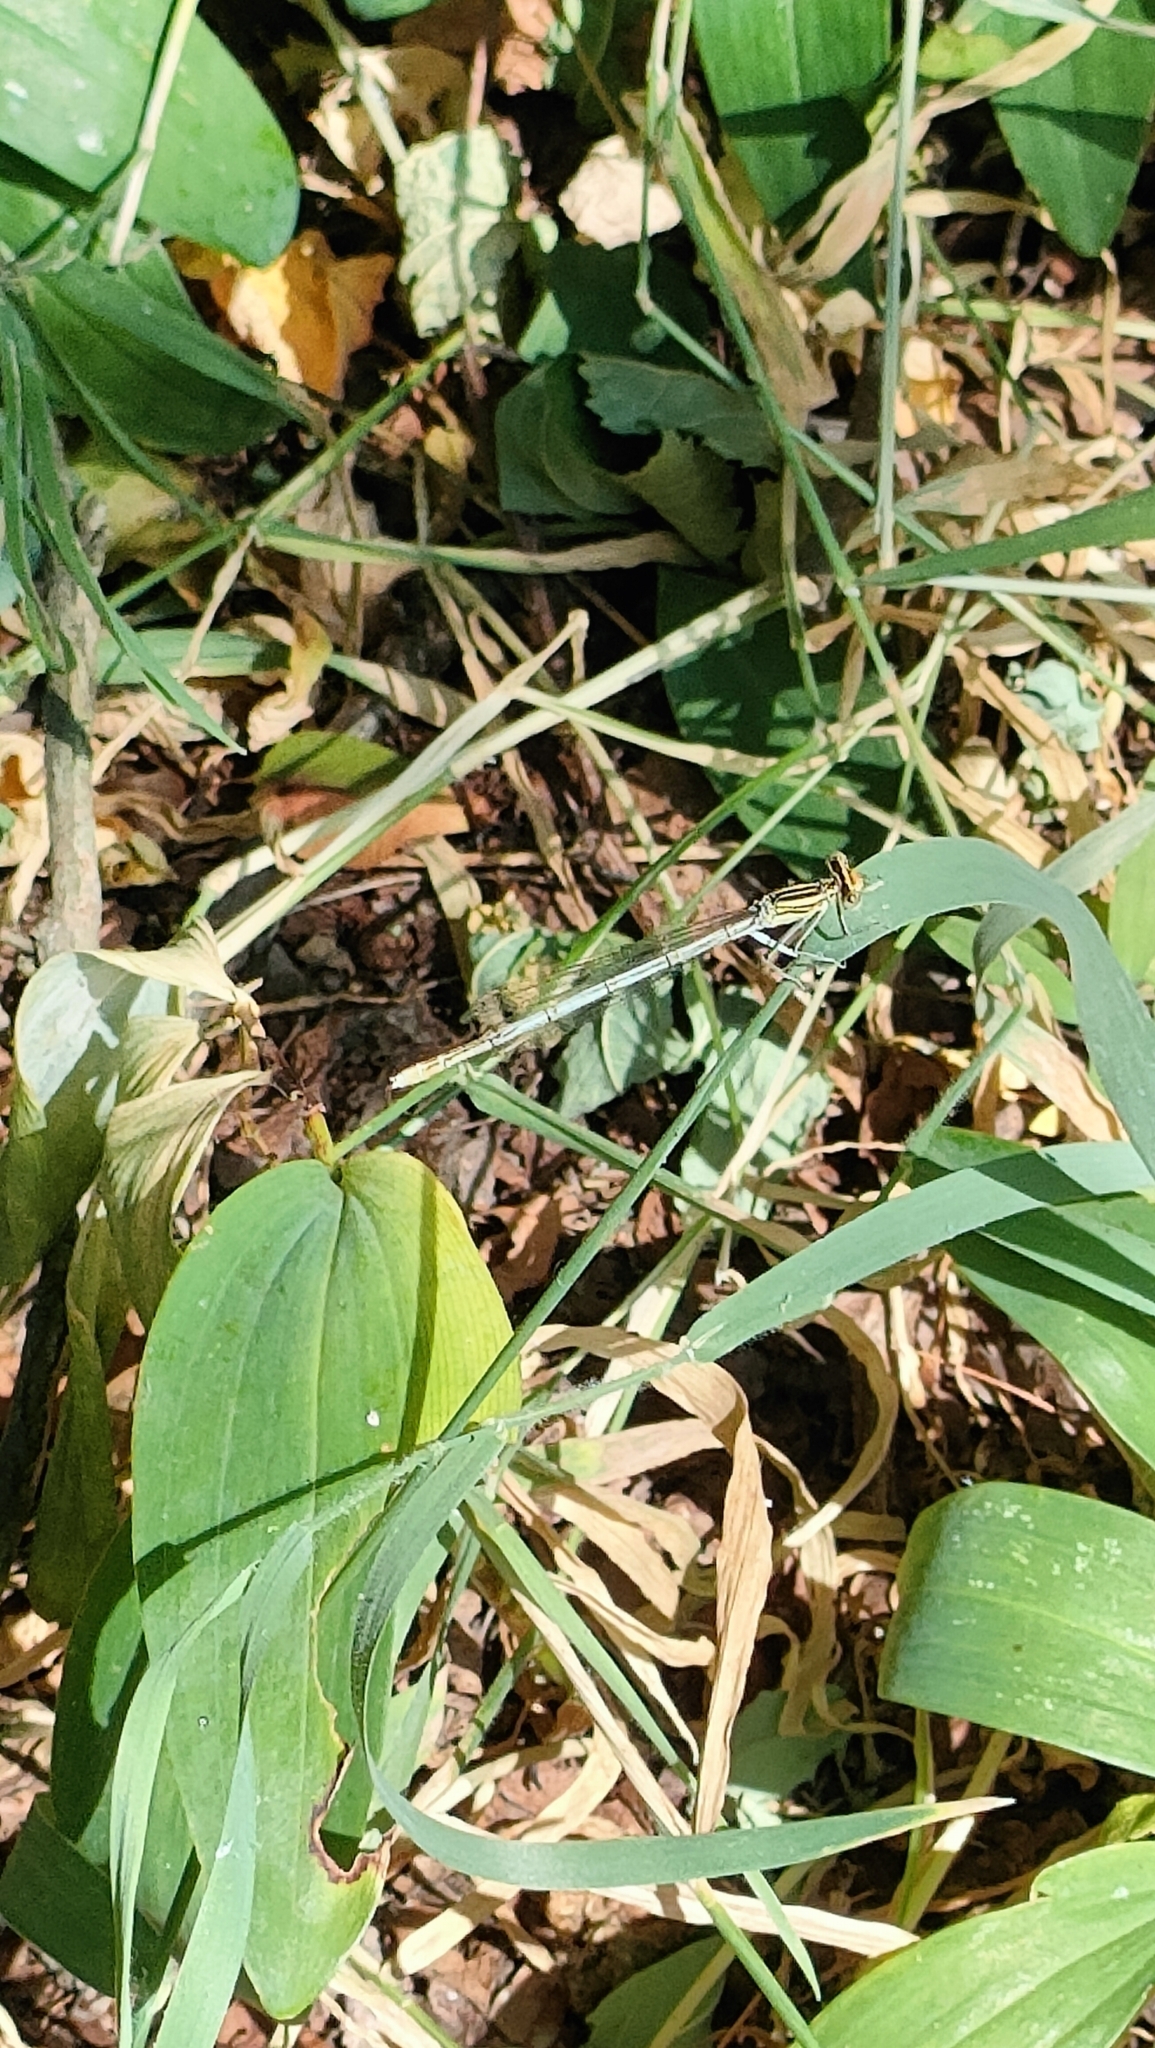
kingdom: Animalia
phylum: Arthropoda
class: Insecta
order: Odonata
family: Platycnemididae
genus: Platycnemis
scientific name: Platycnemis pennipes
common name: White-legged damselfly
